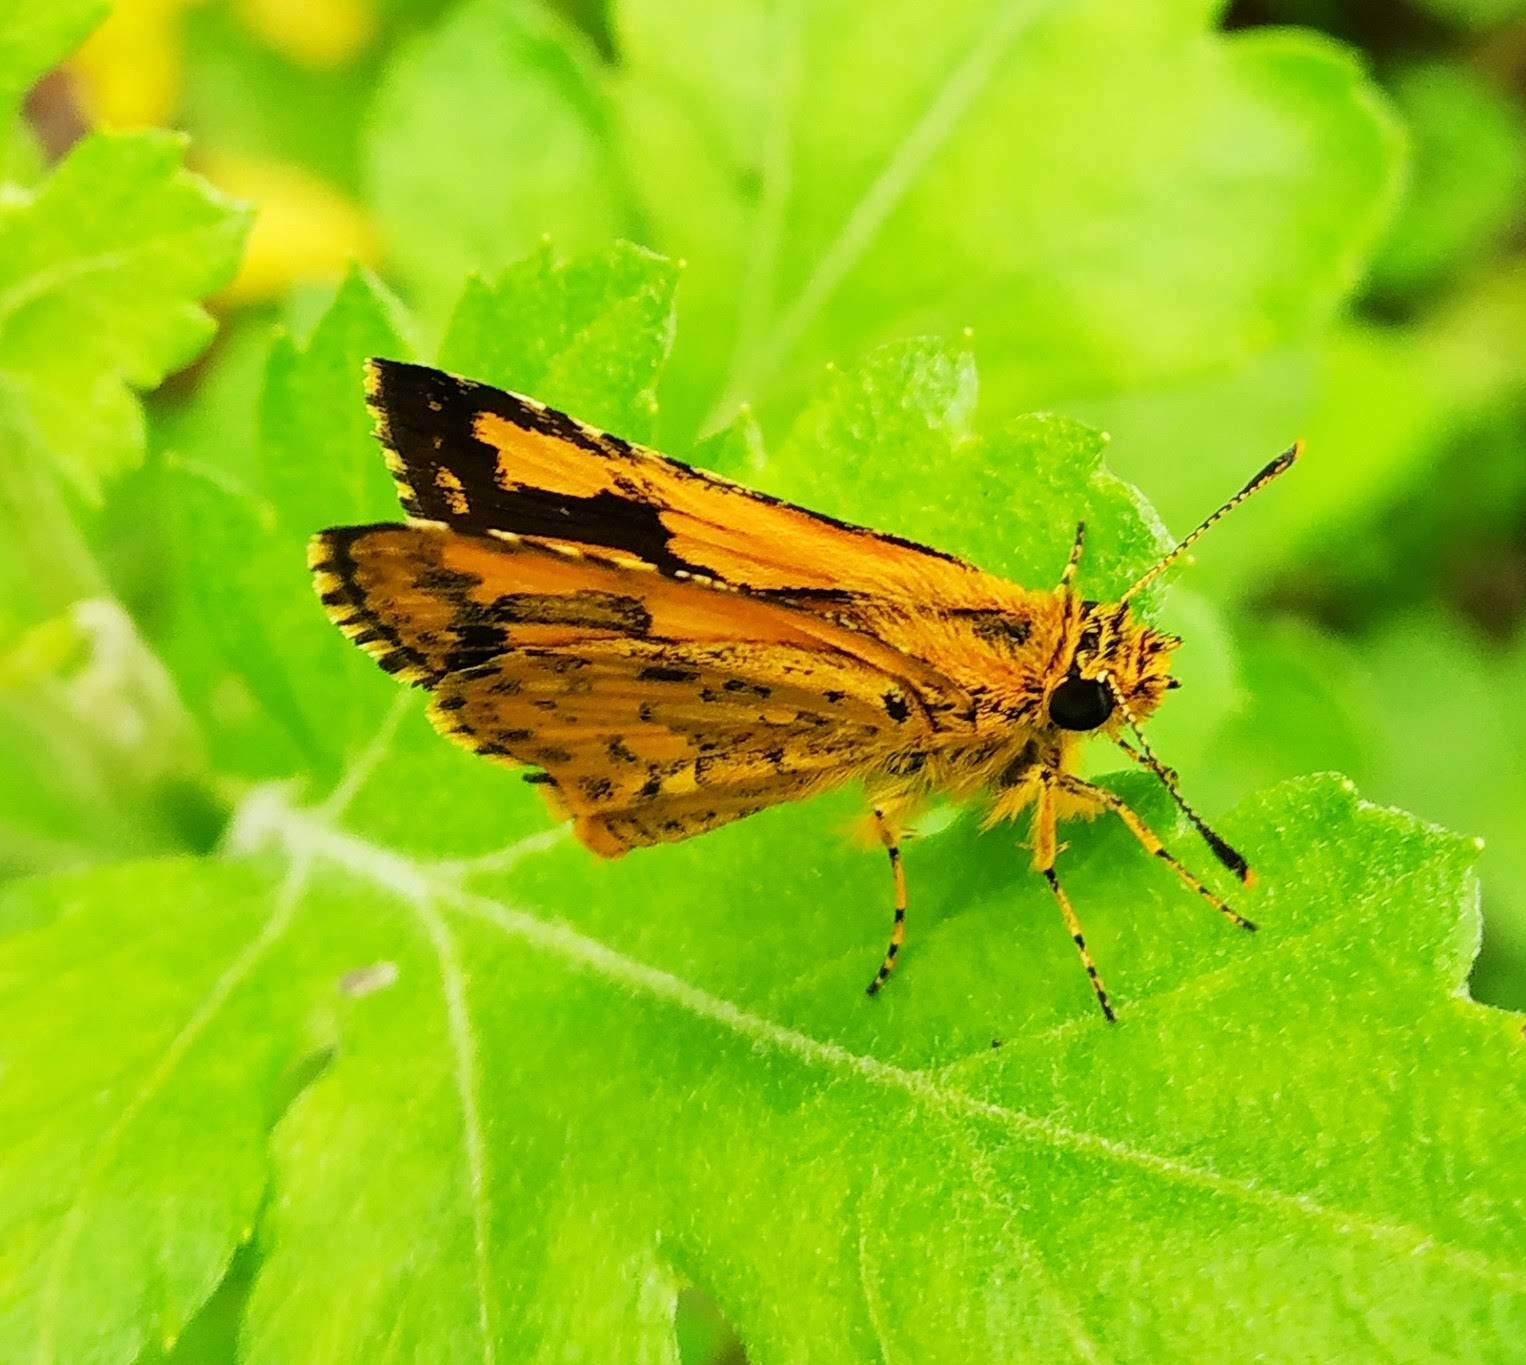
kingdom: Animalia
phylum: Arthropoda
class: Insecta
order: Lepidoptera
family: Hesperiidae
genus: Ampittia
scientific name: Ampittia dioscorides
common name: Common bush hopper
